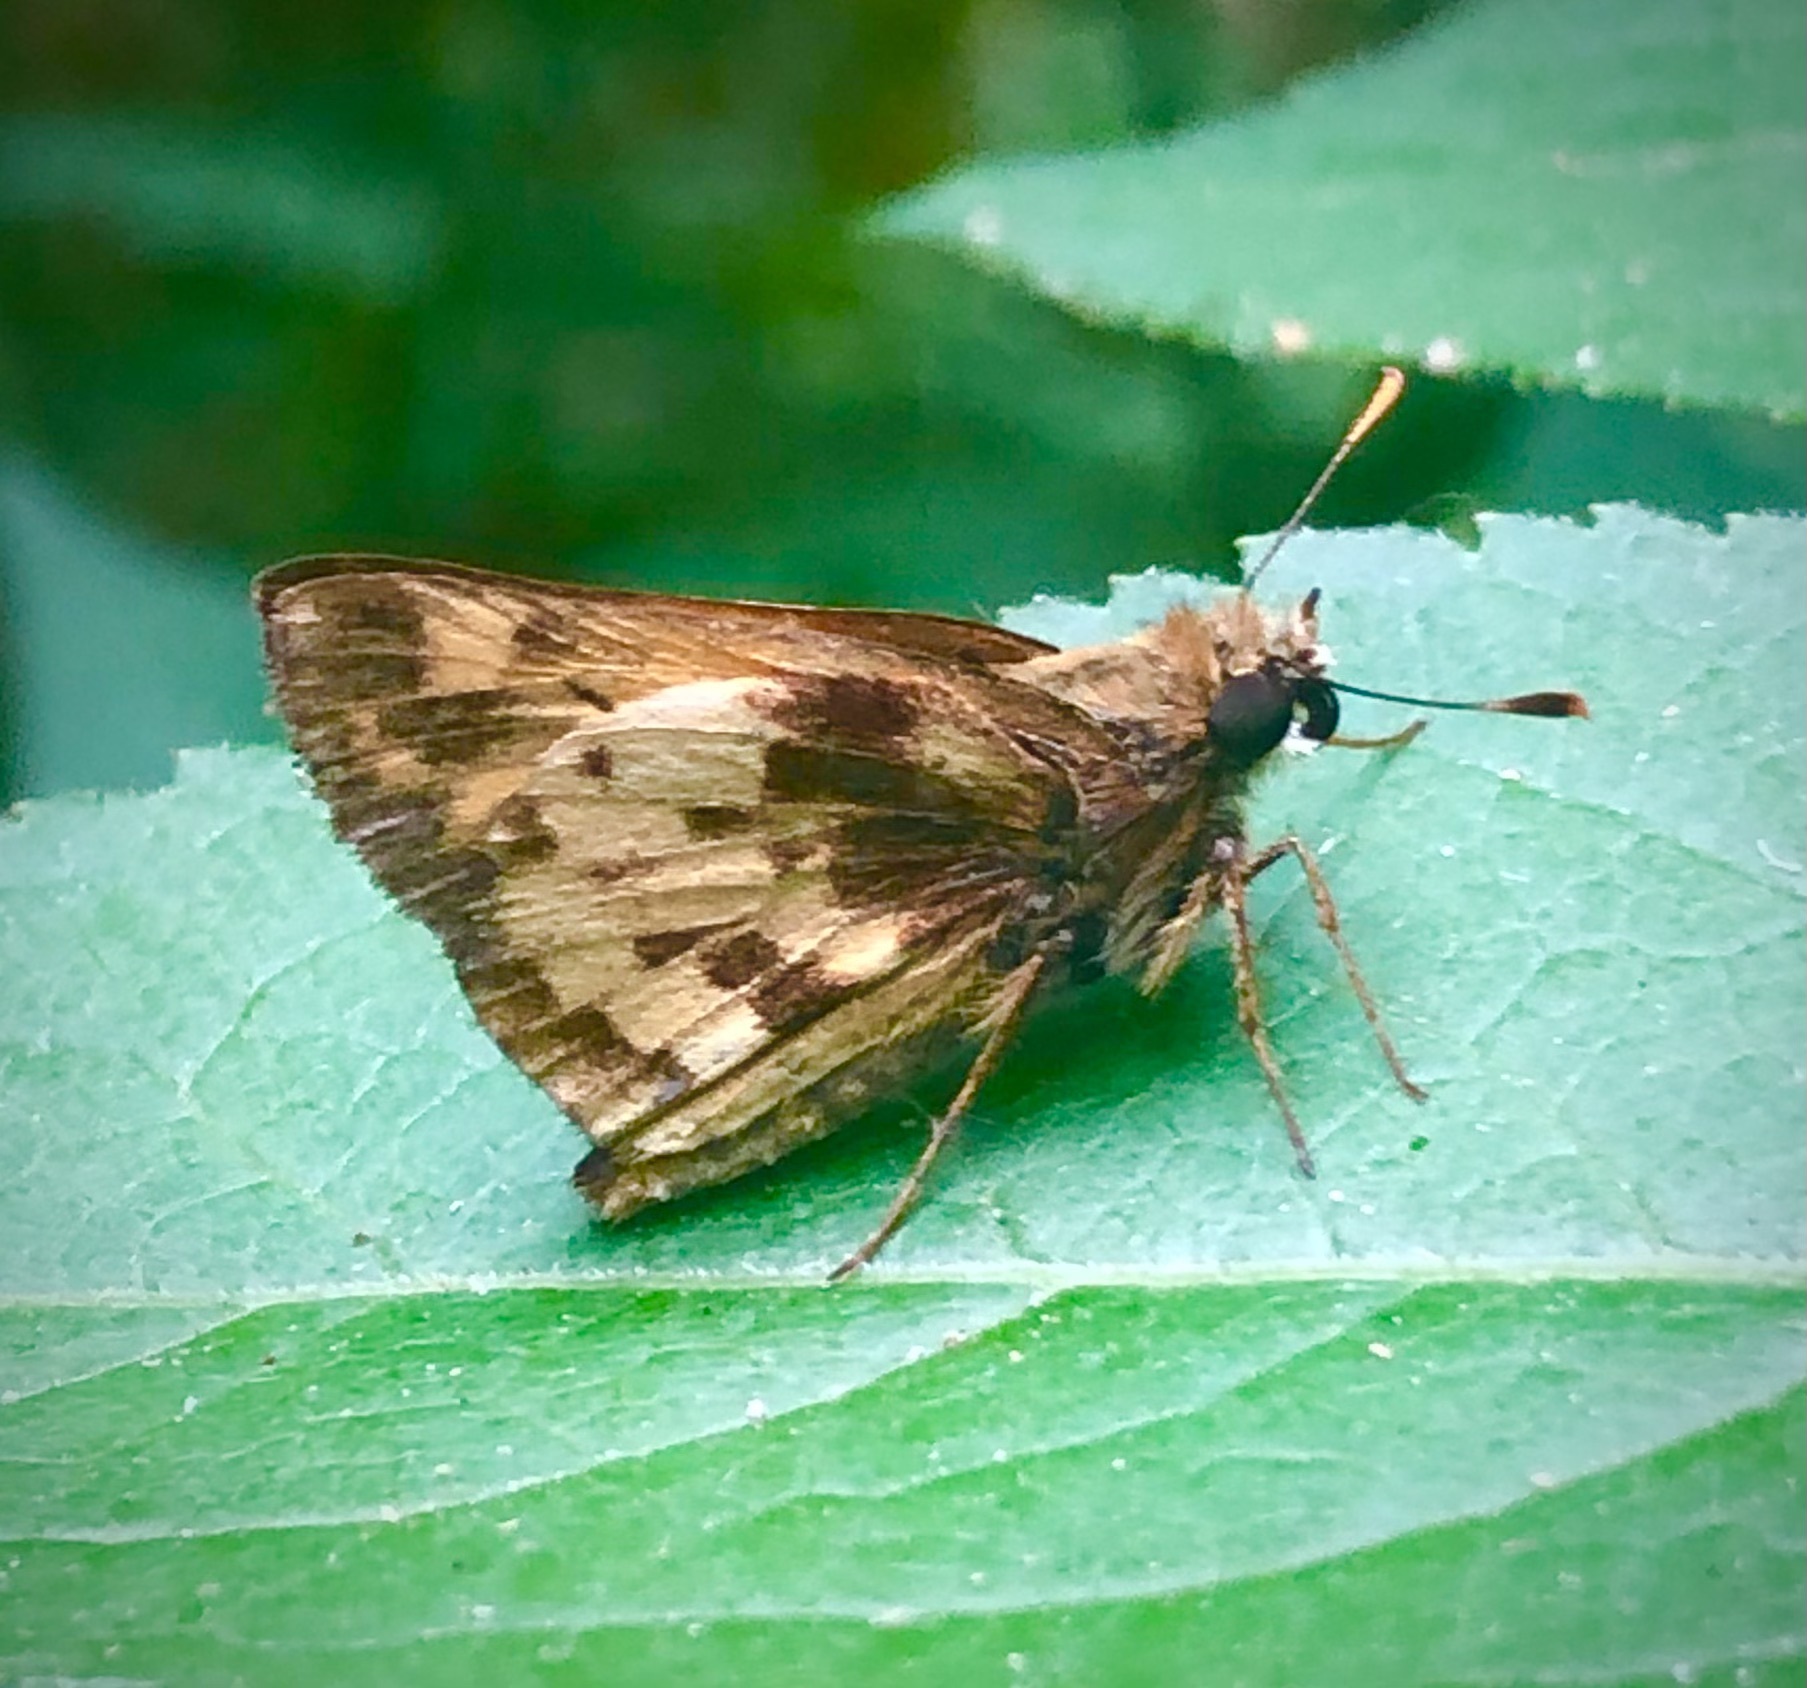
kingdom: Animalia
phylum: Arthropoda
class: Insecta
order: Lepidoptera
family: Hesperiidae
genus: Lon
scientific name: Lon zabulon
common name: Zabulon skipper
